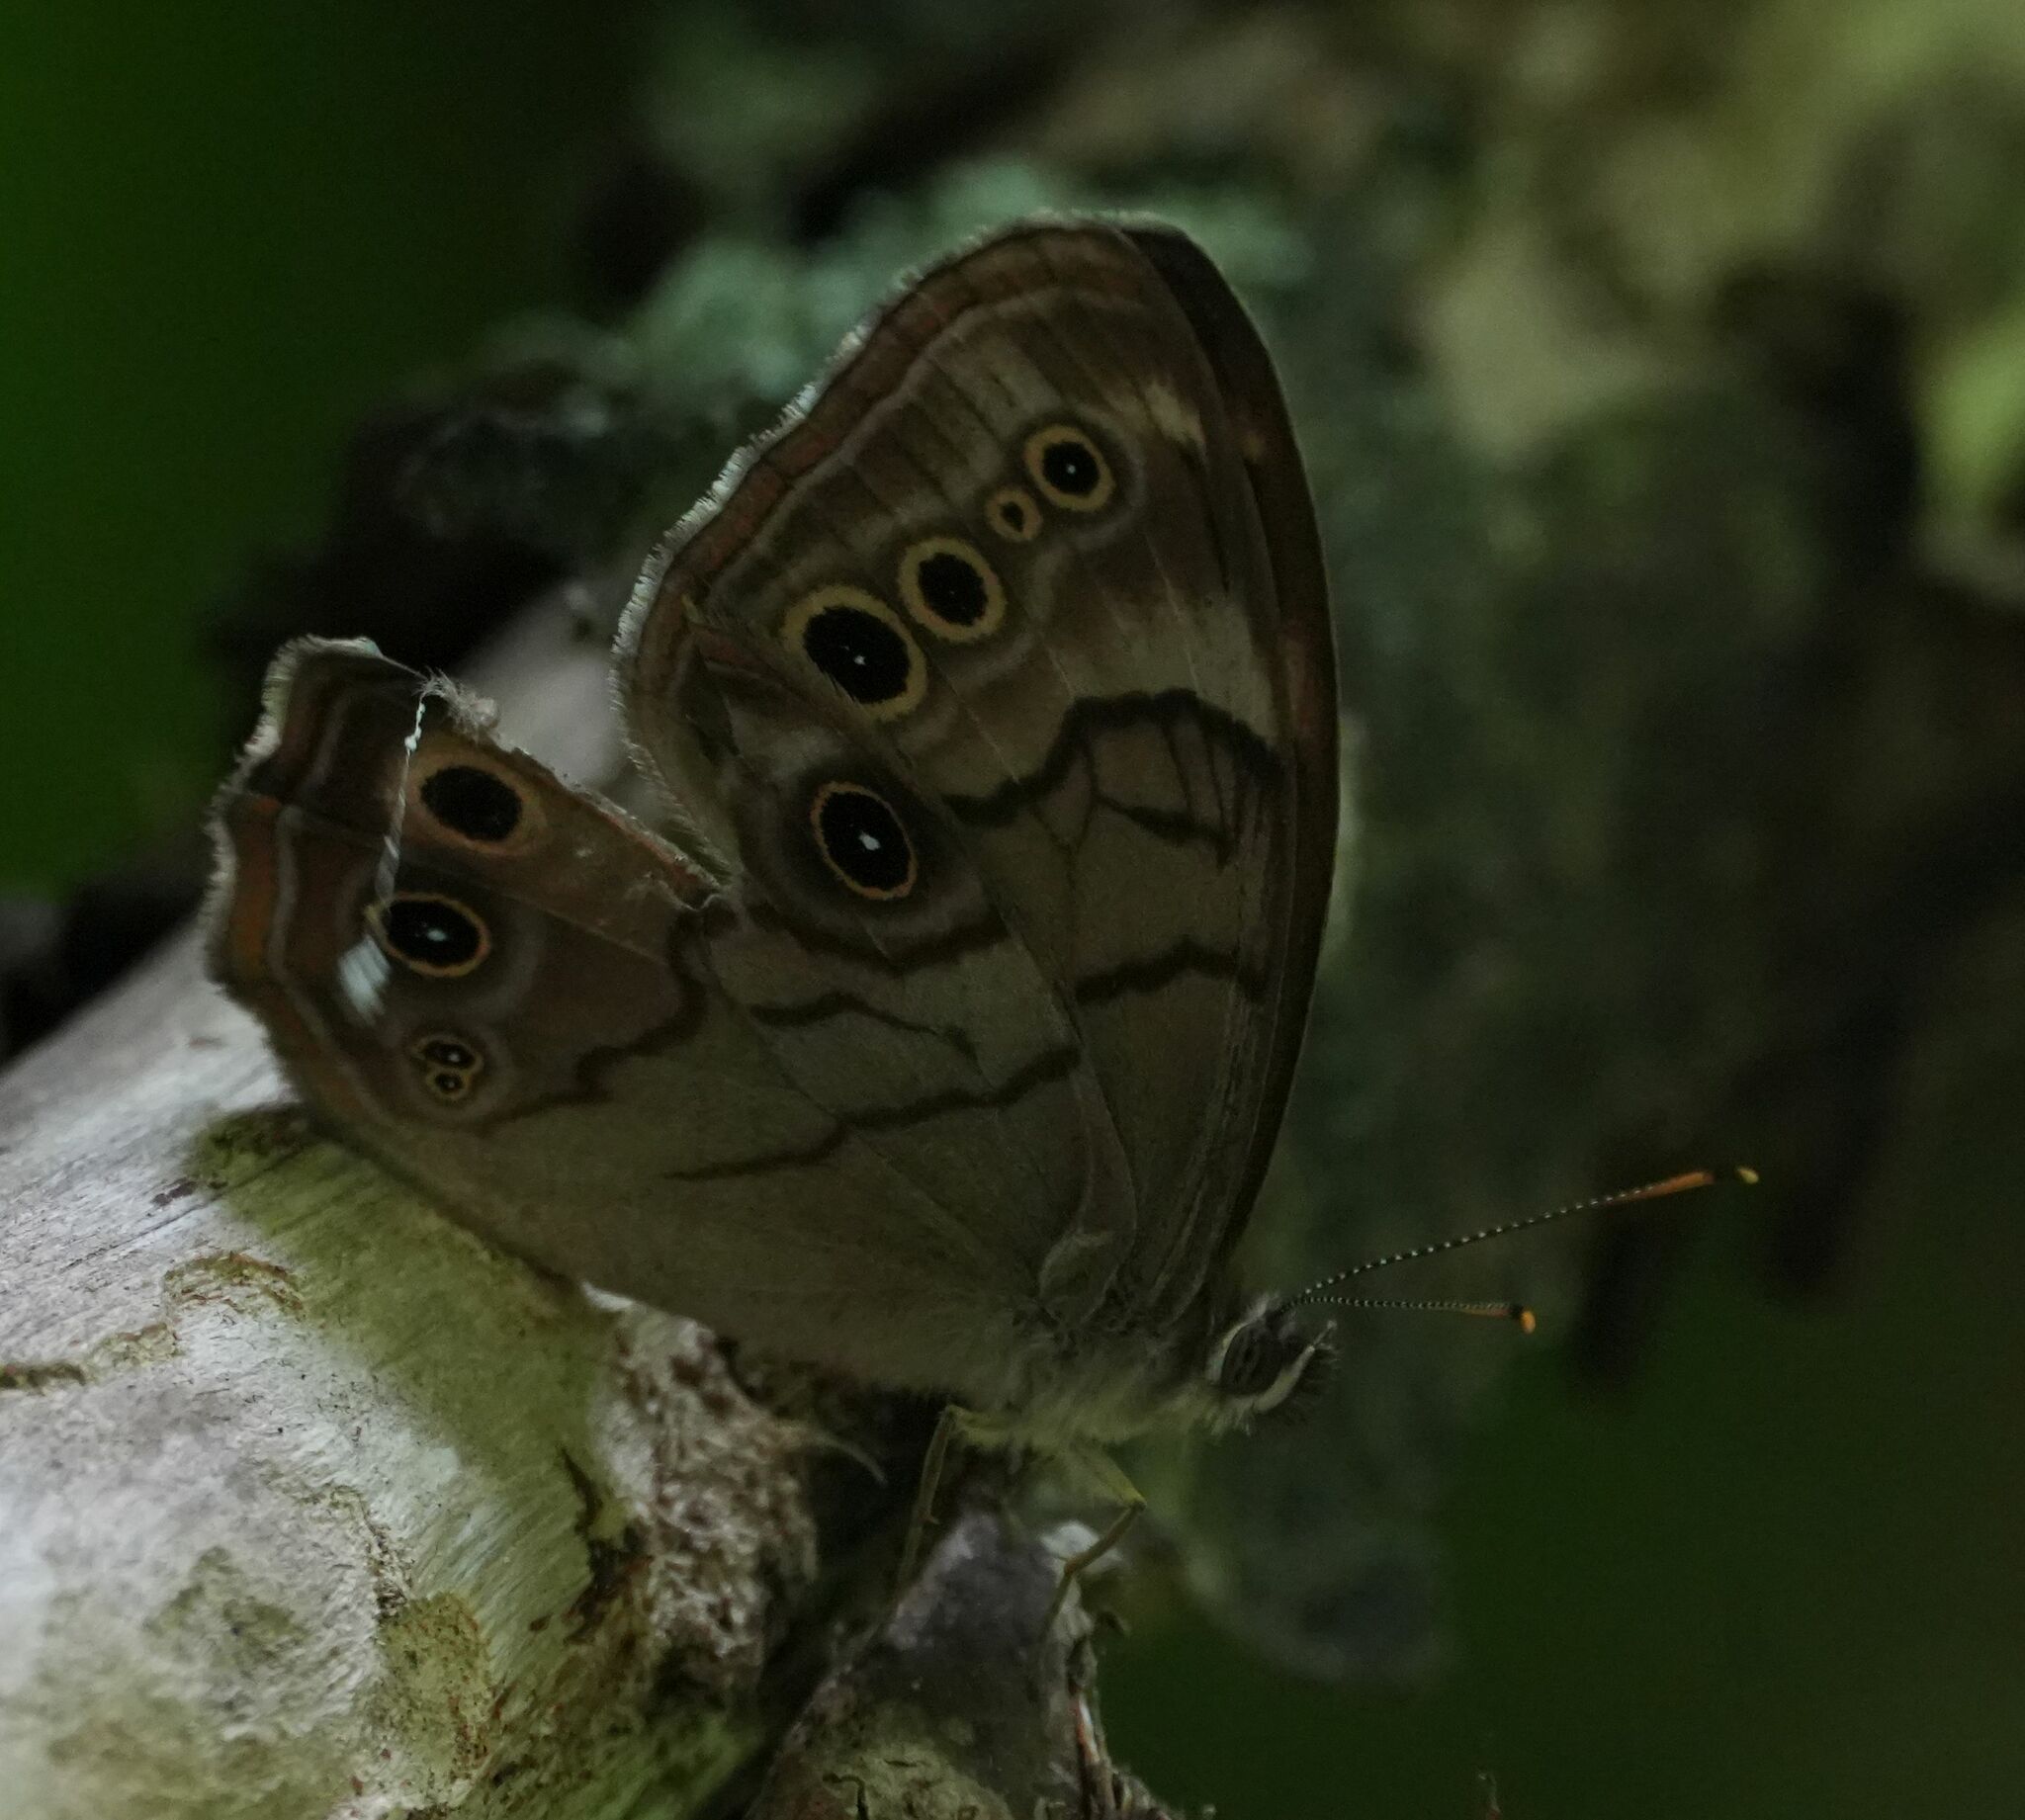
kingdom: Animalia
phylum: Arthropoda
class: Insecta
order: Lepidoptera
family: Nymphalidae
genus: Lethe
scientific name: Lethe anthedon
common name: Northern pearly-eye
